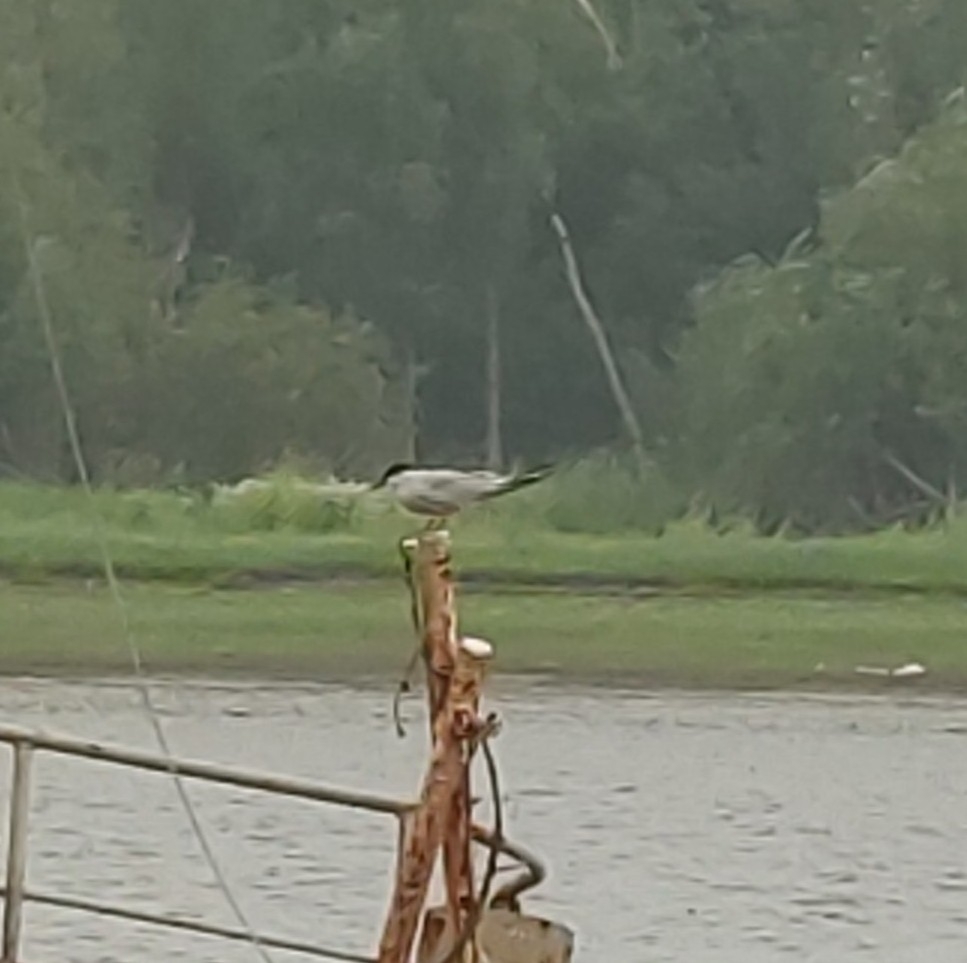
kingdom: Animalia
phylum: Chordata
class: Aves
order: Charadriiformes
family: Laridae
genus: Sterna
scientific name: Sterna hirundo
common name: Common tern
